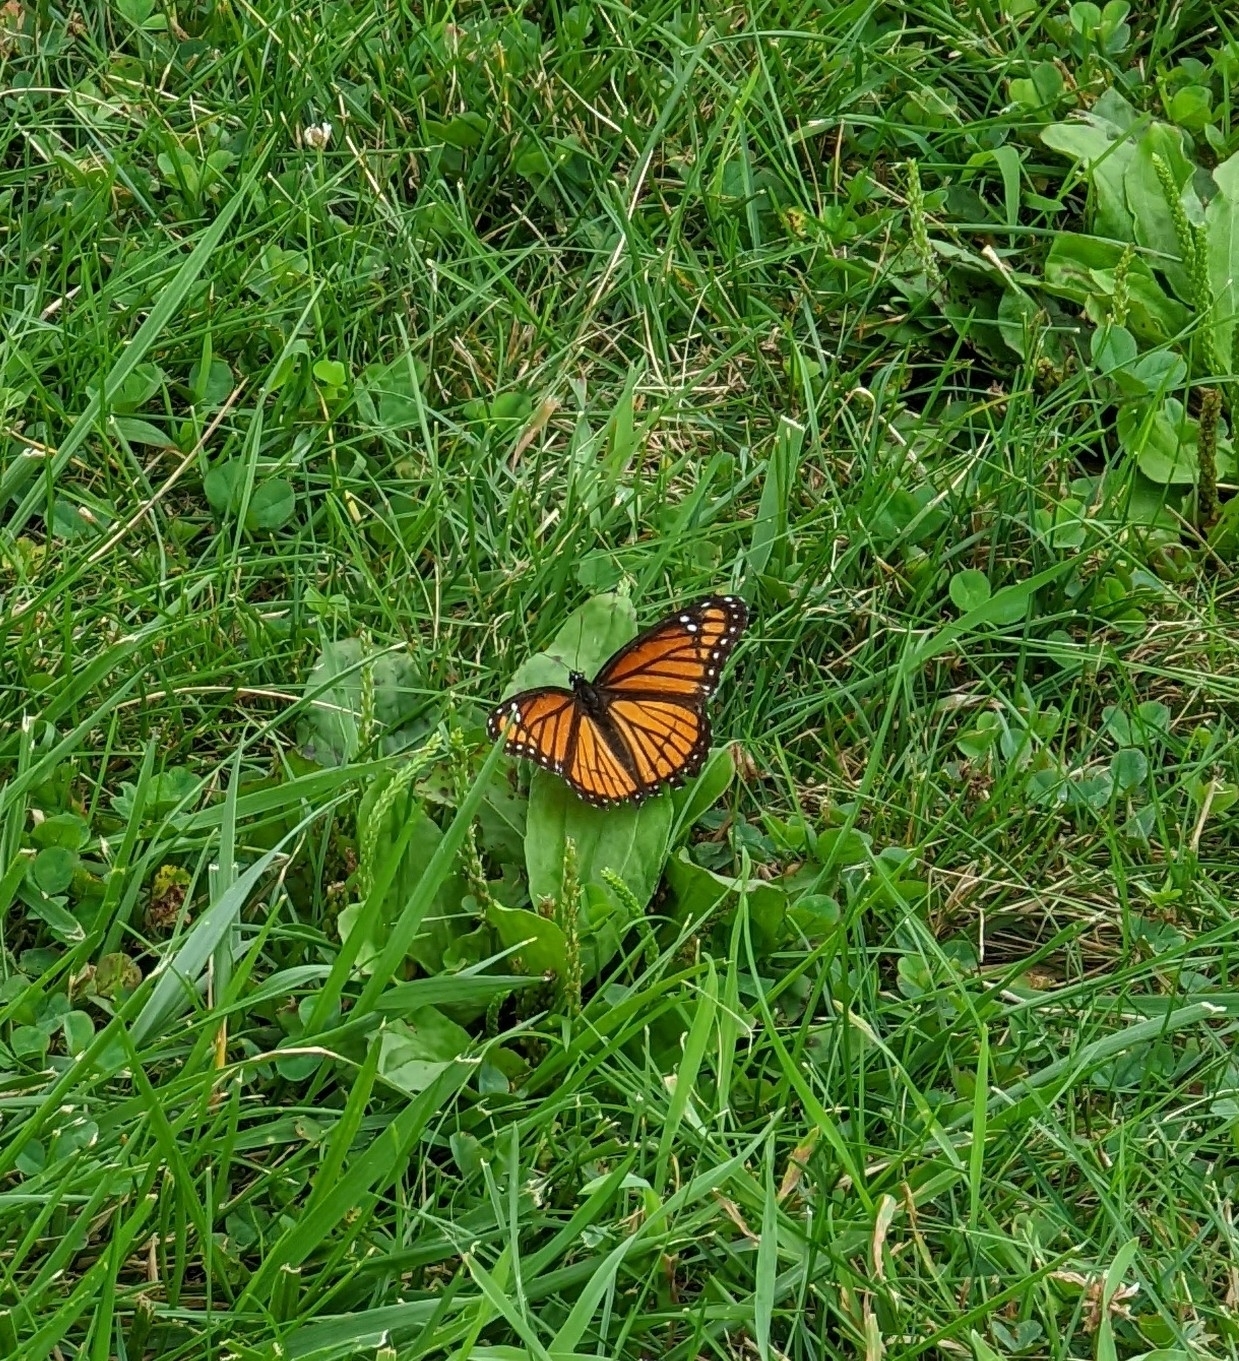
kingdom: Animalia
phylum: Arthropoda
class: Insecta
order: Lepidoptera
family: Nymphalidae
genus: Limenitis
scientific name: Limenitis archippus
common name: Viceroy
